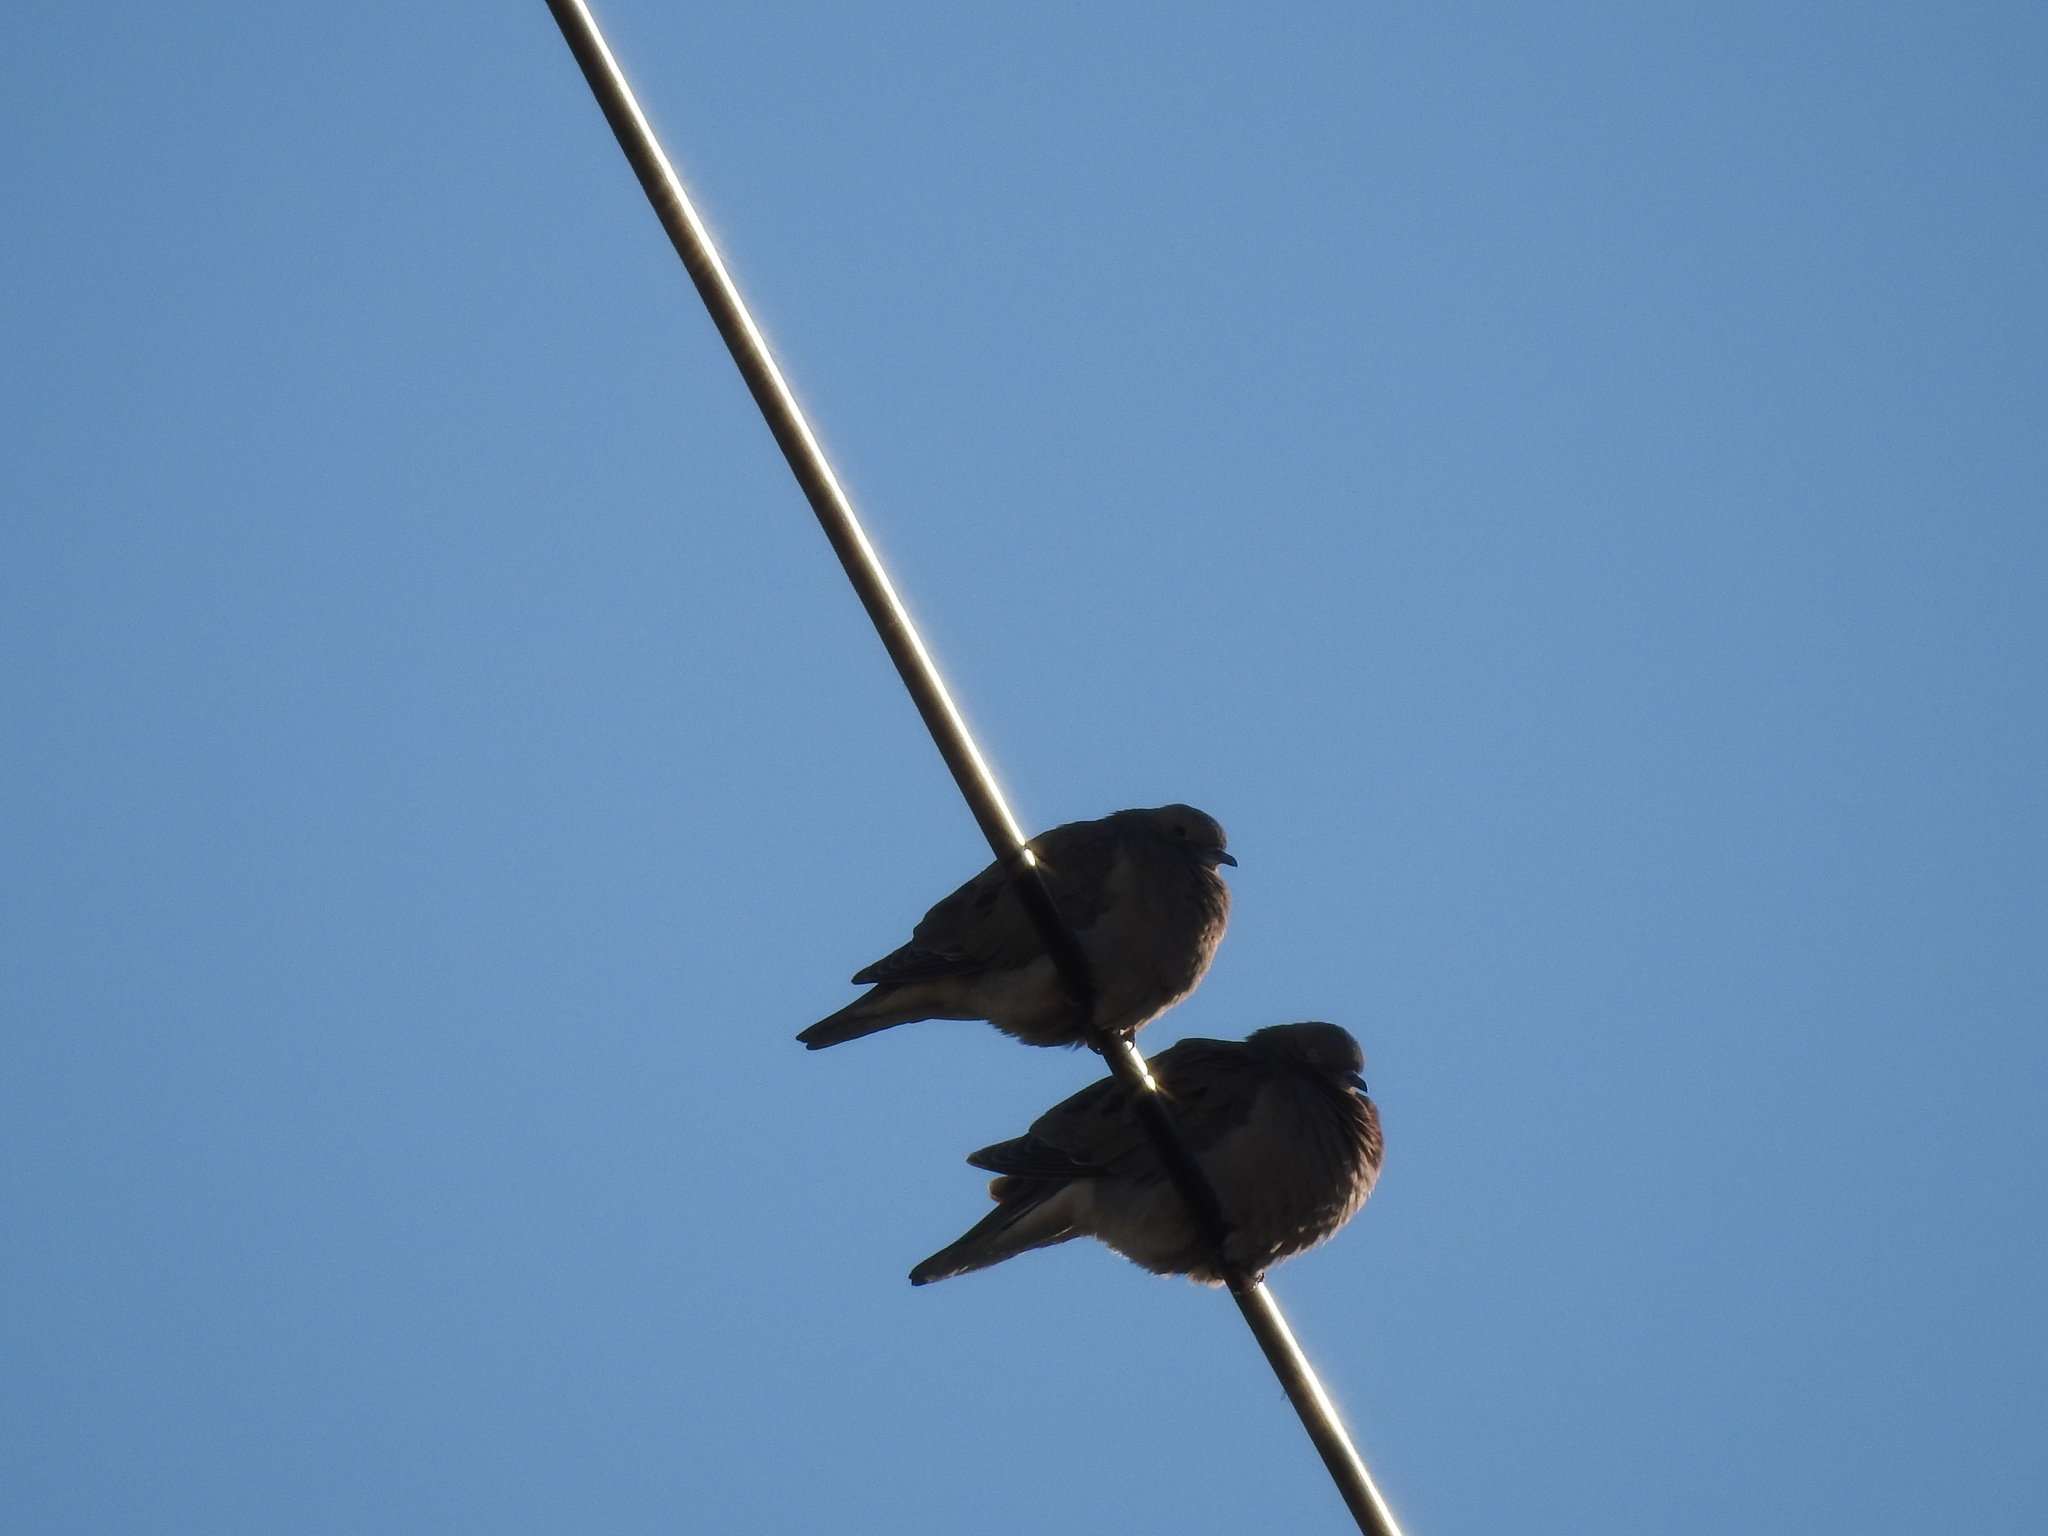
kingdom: Animalia
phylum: Chordata
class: Aves
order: Columbiformes
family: Columbidae
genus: Zenaida
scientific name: Zenaida auriculata
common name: Eared dove
